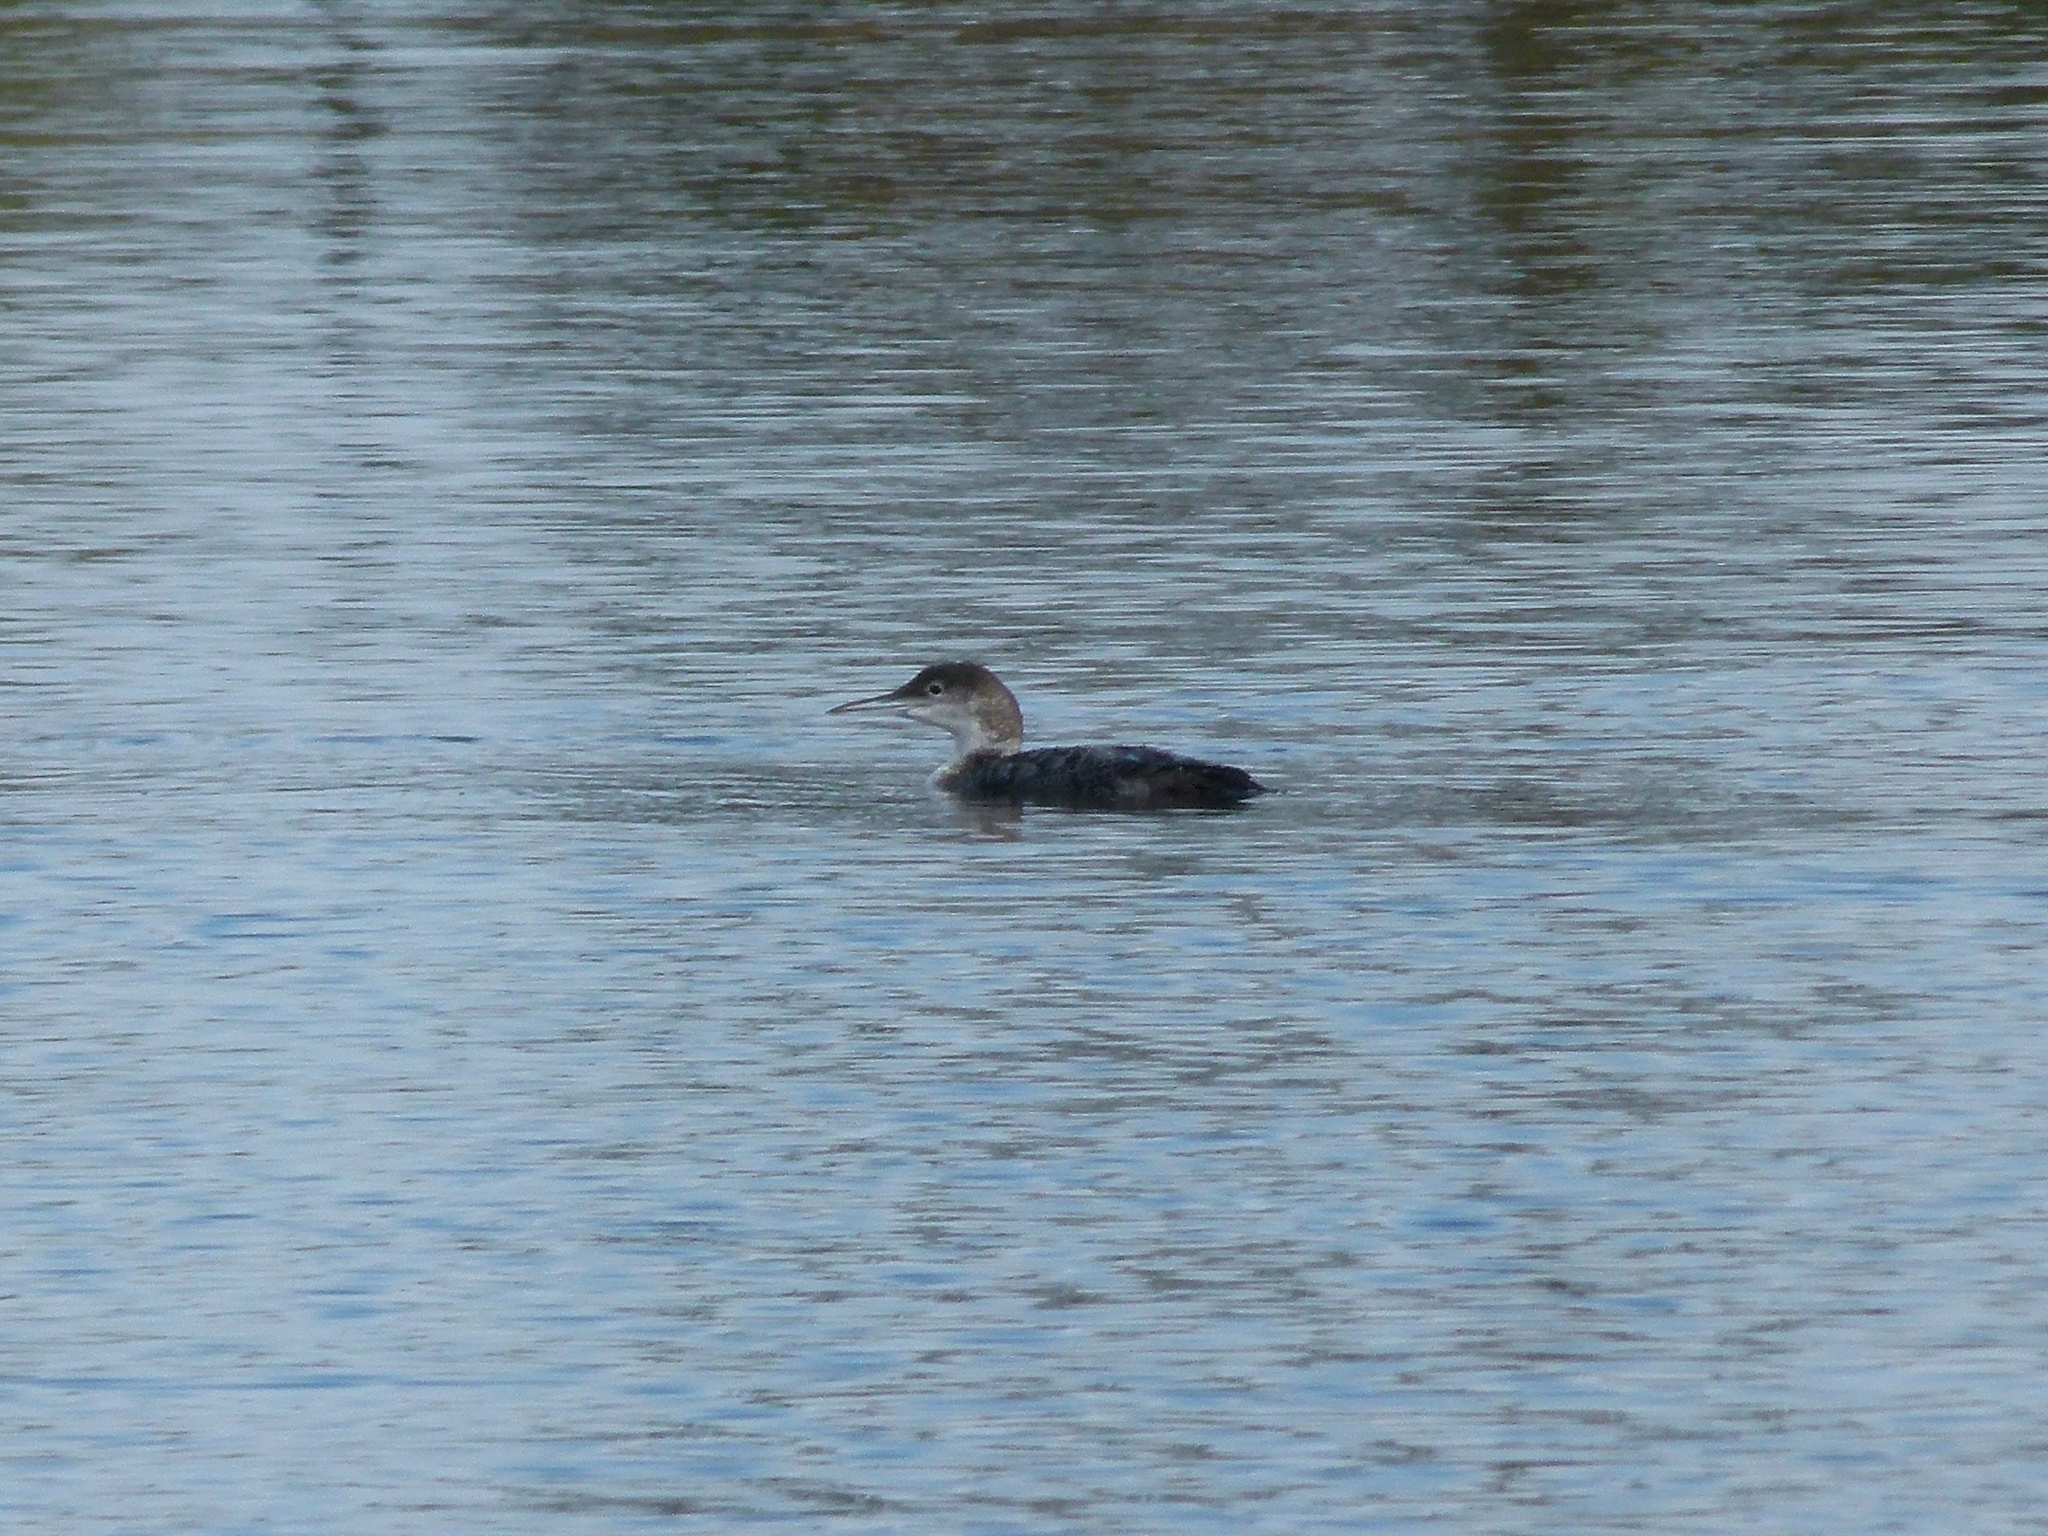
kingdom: Animalia
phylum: Chordata
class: Aves
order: Gaviiformes
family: Gaviidae
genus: Gavia
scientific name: Gavia immer
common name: Common loon
